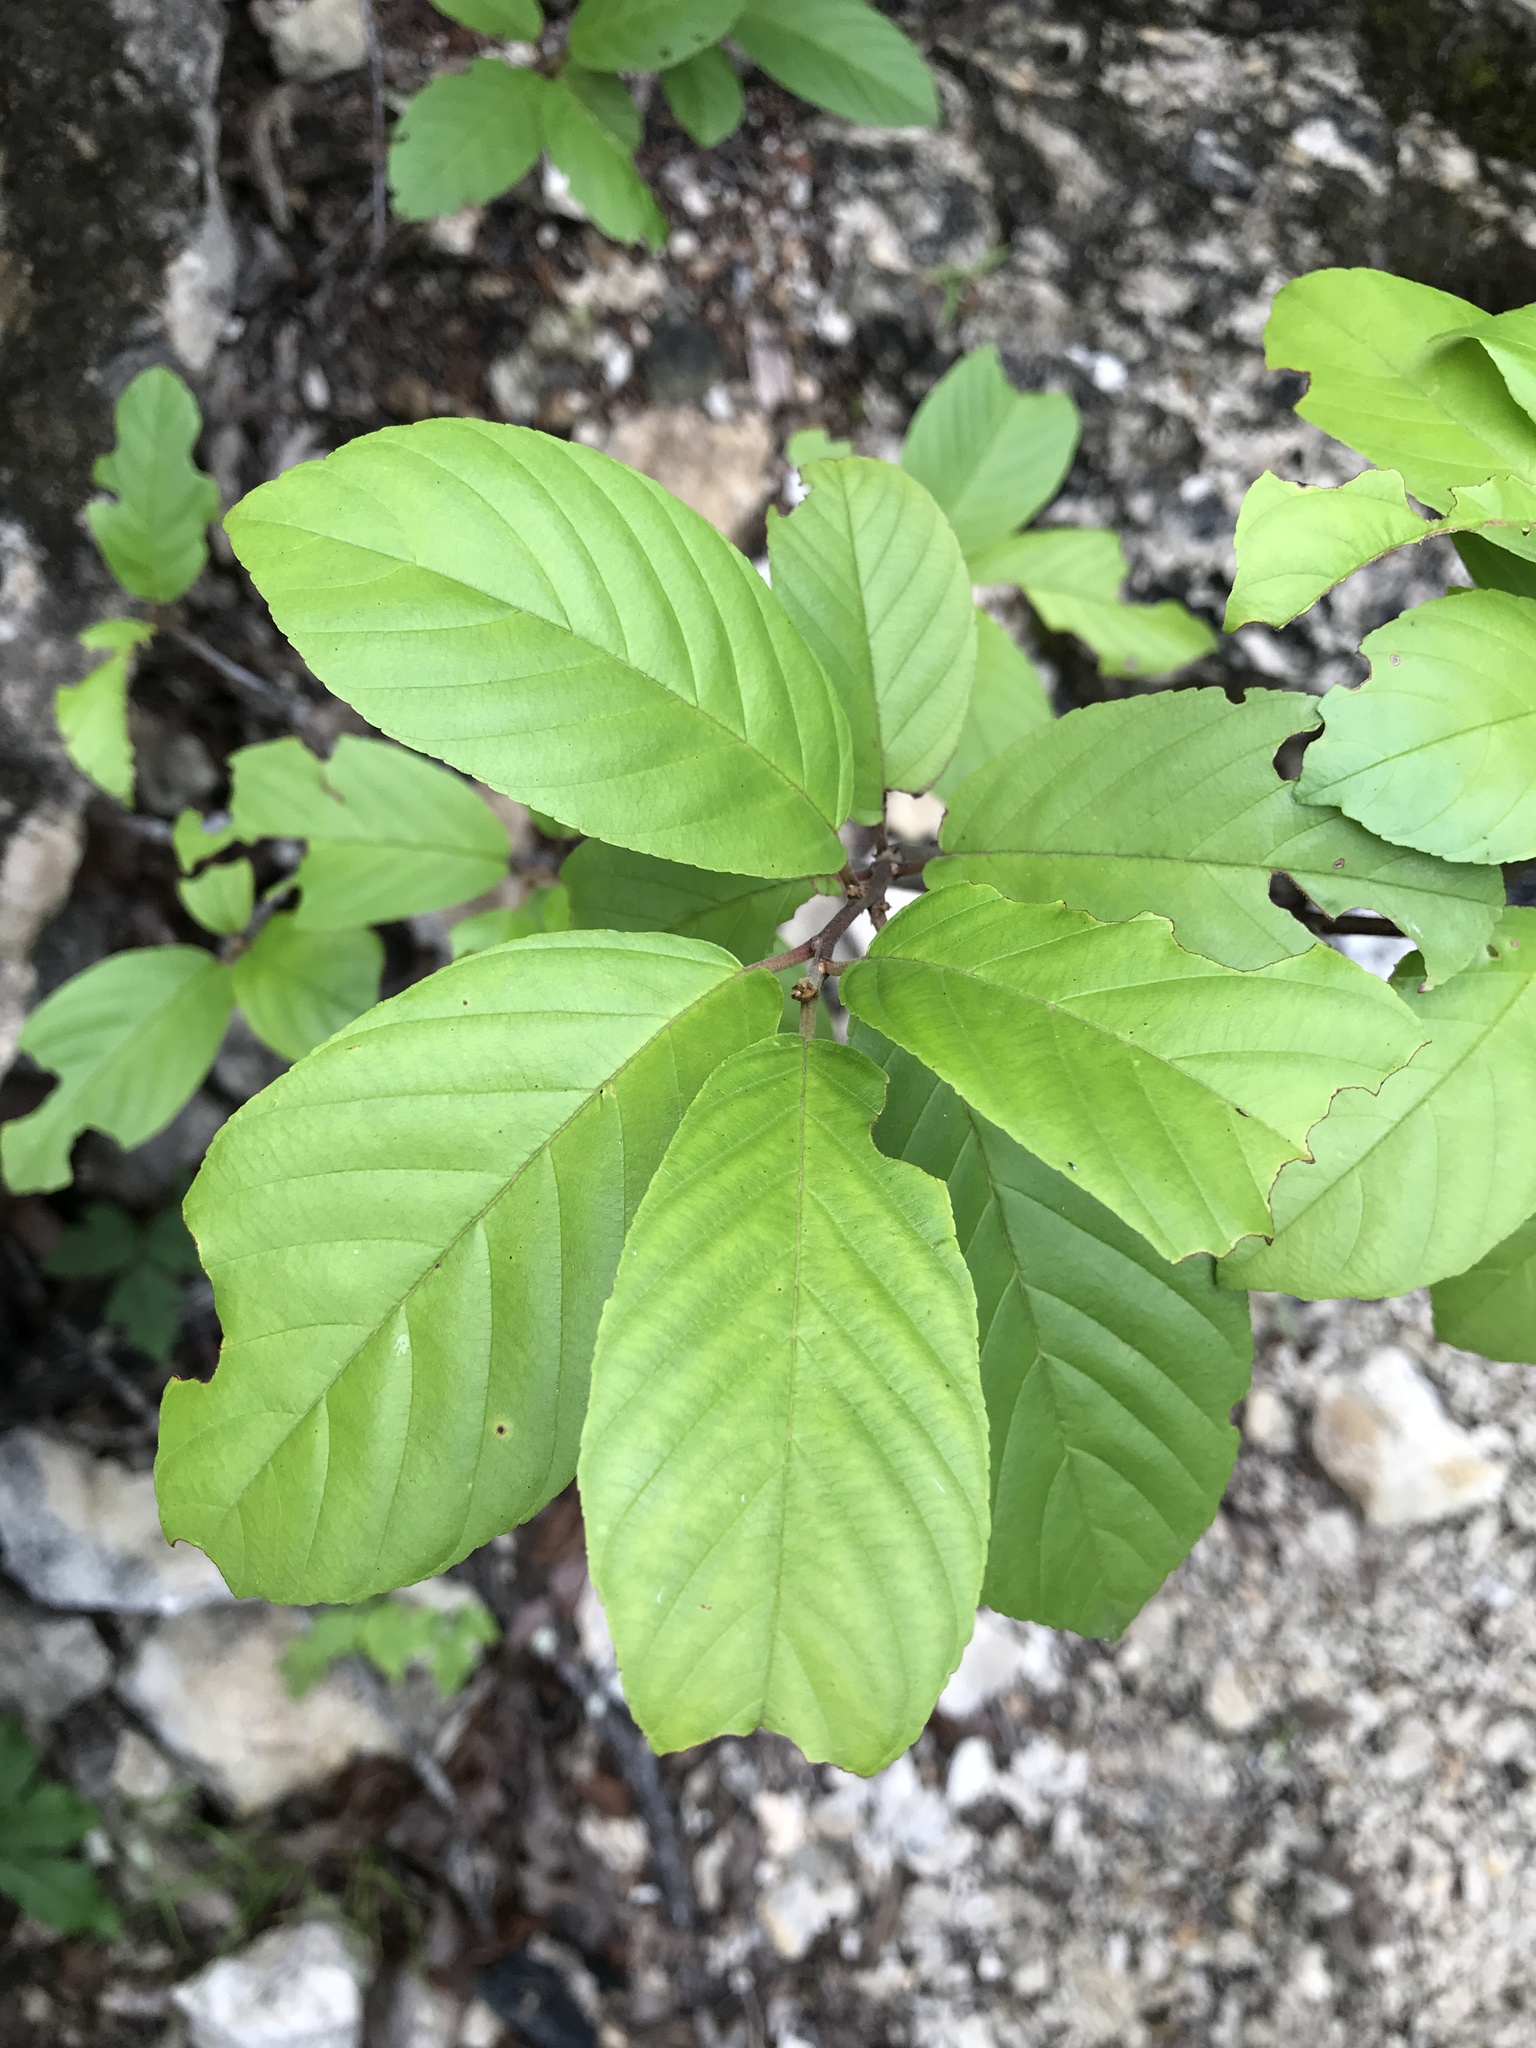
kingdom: Plantae
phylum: Tracheophyta
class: Magnoliopsida
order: Rosales
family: Rhamnaceae
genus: Frangula
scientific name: Frangula caroliniana
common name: Carolina buckthorn
